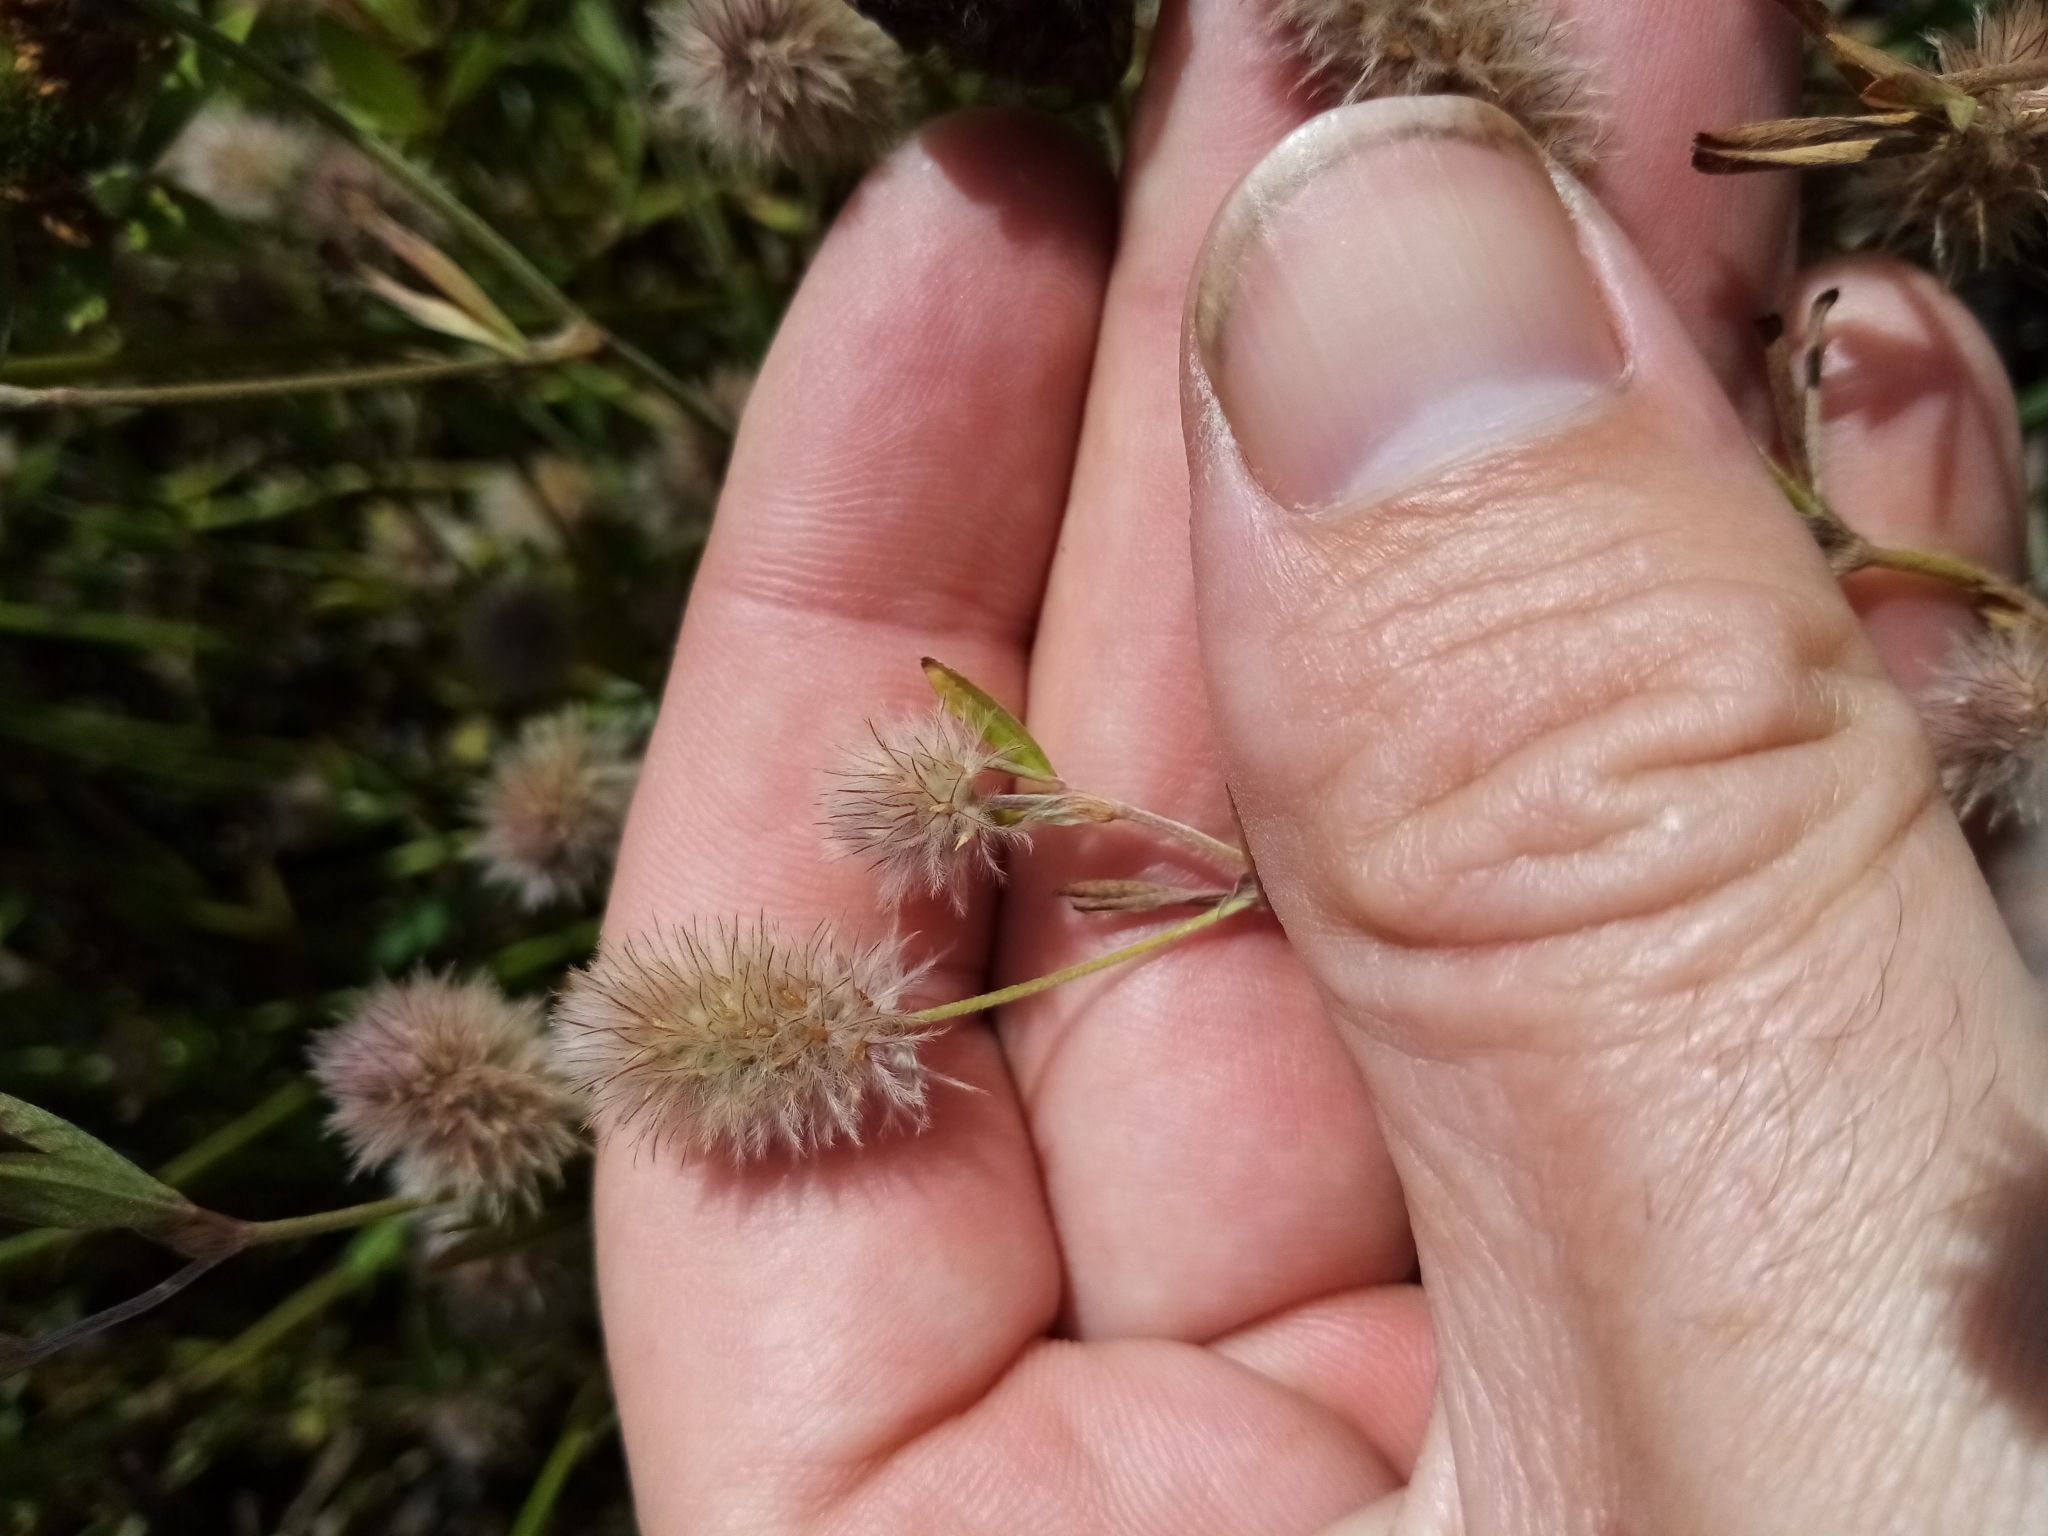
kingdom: Plantae
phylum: Tracheophyta
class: Magnoliopsida
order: Fabales
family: Fabaceae
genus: Trifolium
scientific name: Trifolium arvense
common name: Hare's-foot clover
